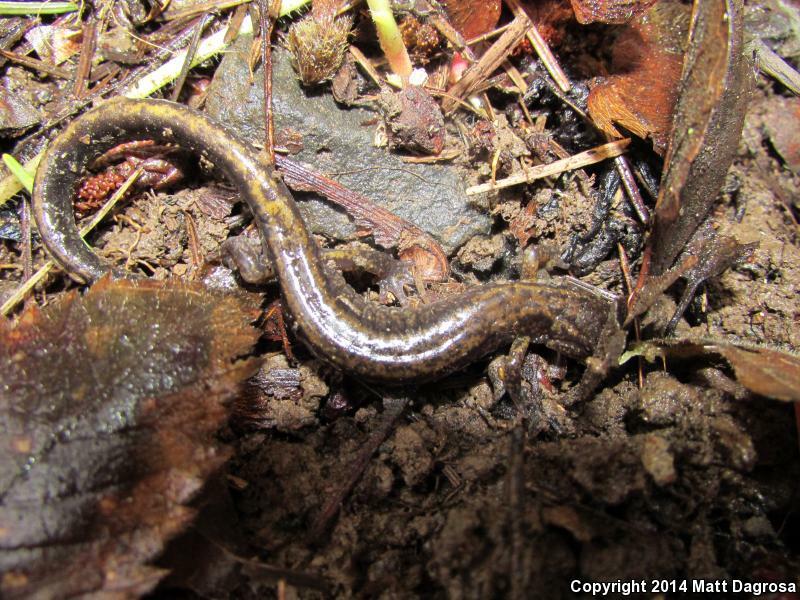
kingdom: Animalia
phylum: Chordata
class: Amphibia
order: Caudata
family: Plethodontidae
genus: Plethodon
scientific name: Plethodon dunni
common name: Dunn's salamander
